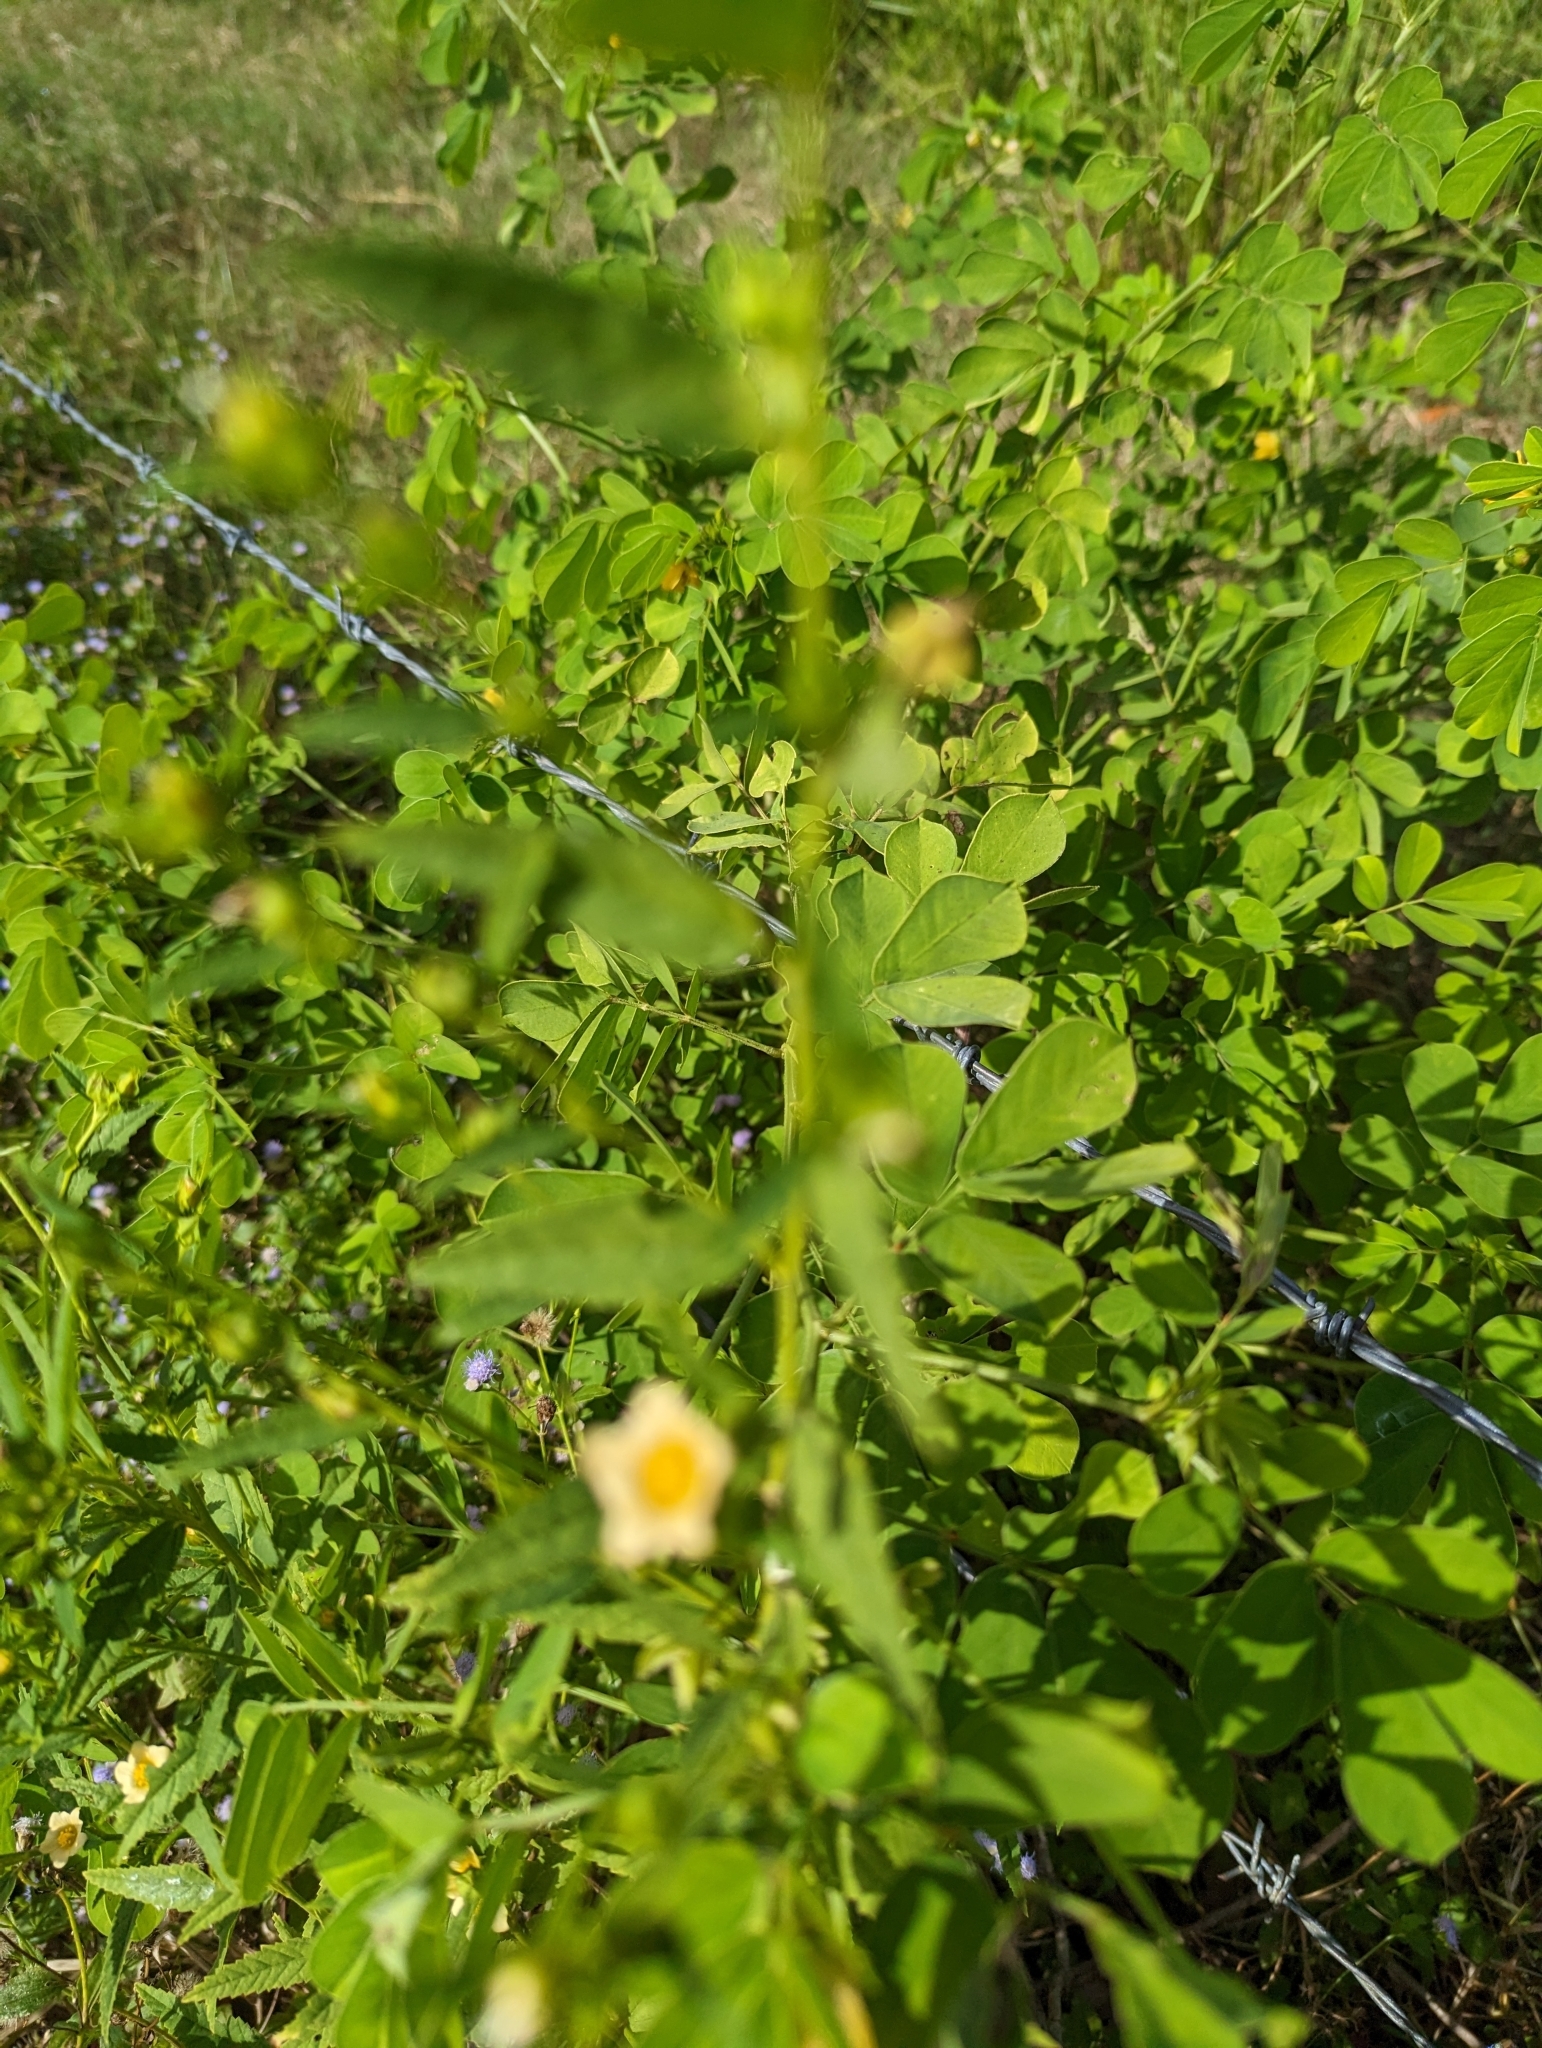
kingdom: Plantae
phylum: Tracheophyta
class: Magnoliopsida
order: Malvales
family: Malvaceae
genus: Sida
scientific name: Sida acuta
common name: Common wireweed
